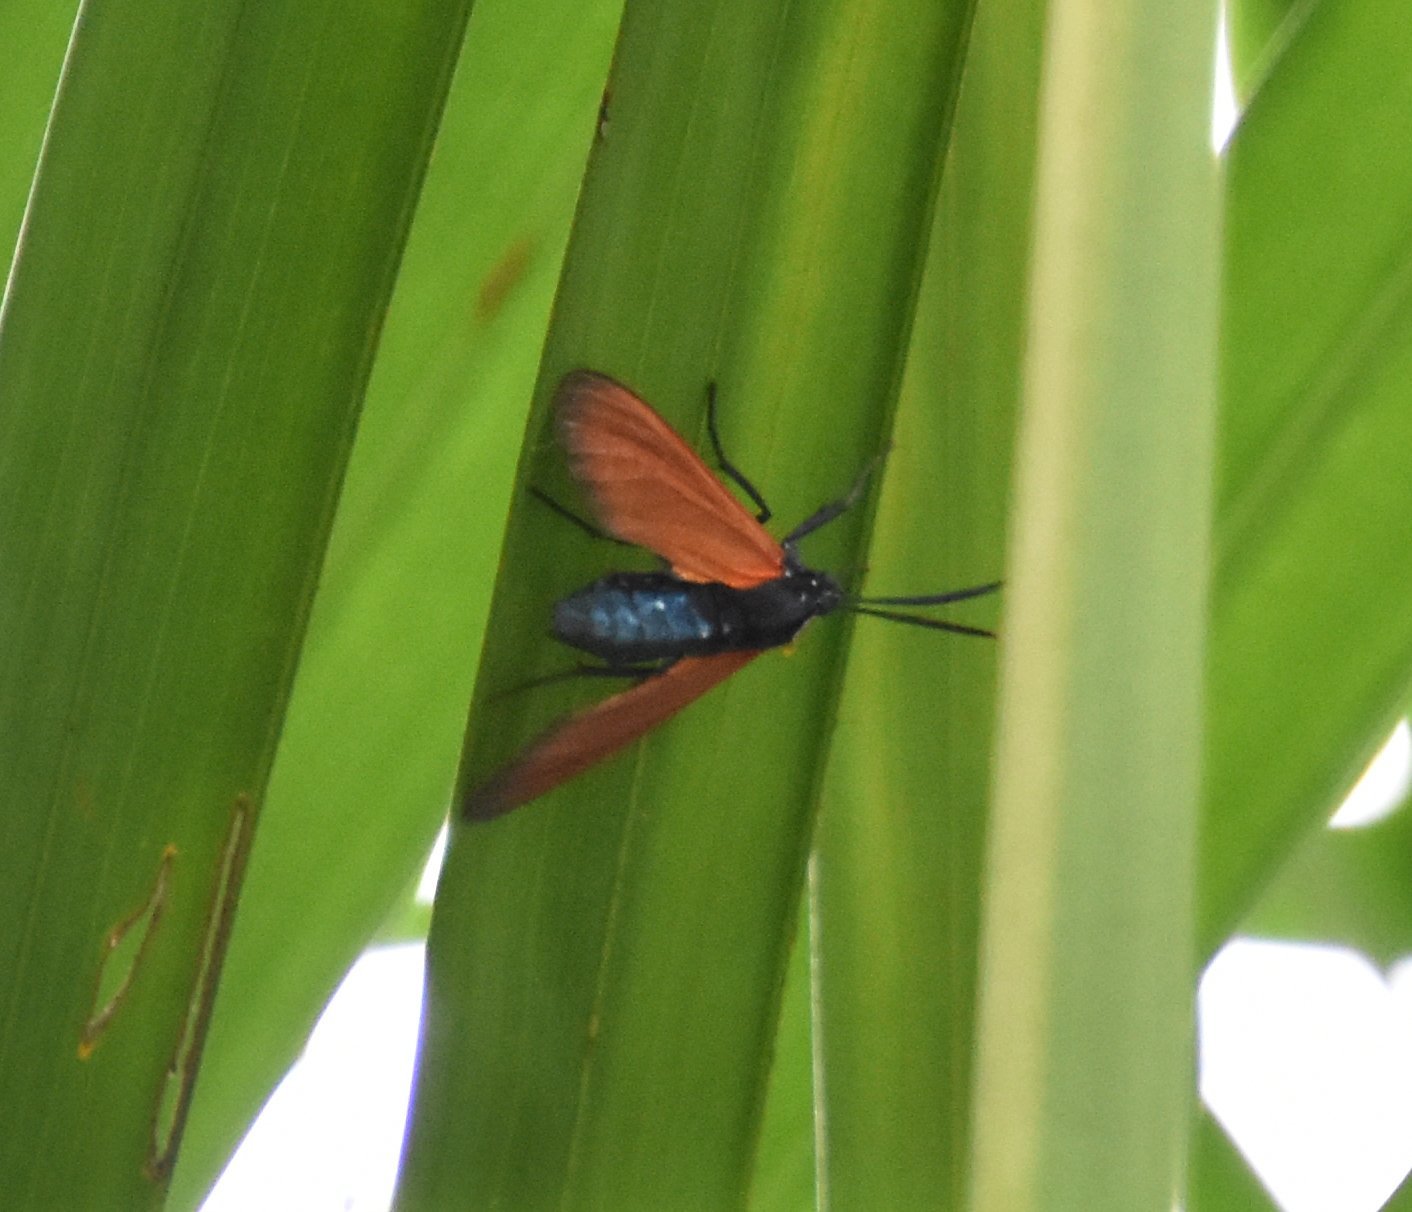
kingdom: Animalia
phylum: Arthropoda
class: Insecta
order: Lepidoptera
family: Erebidae
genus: Empyreuma
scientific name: Empyreuma pugione
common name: Spotted oleander caterpillar moth
